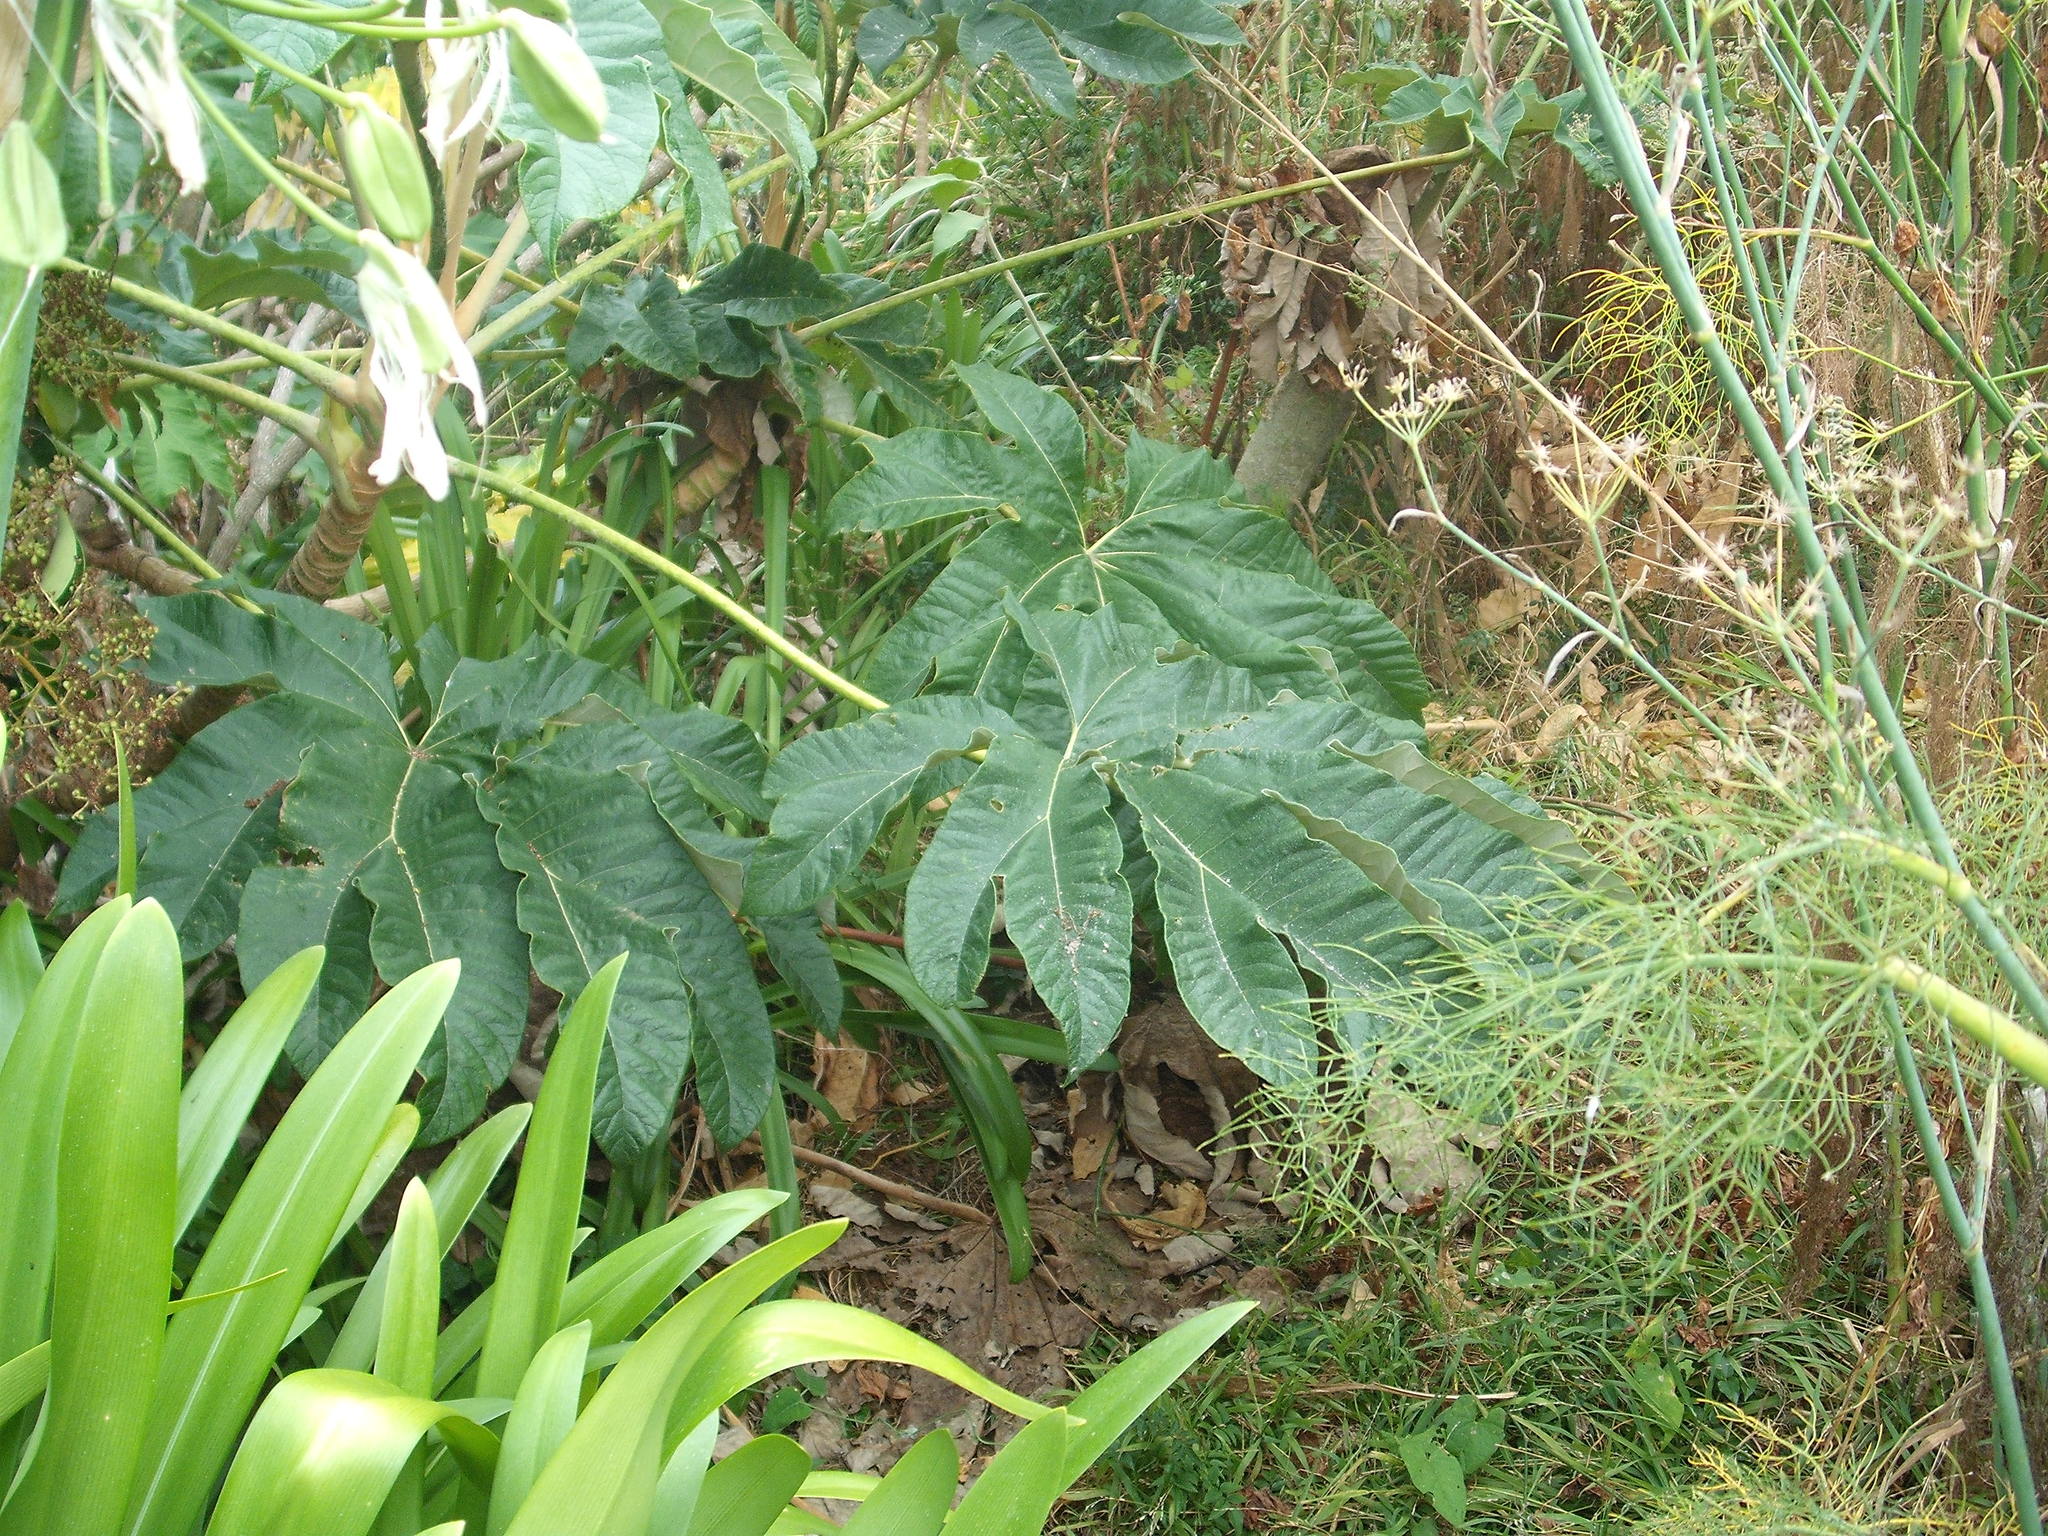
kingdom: Plantae
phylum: Tracheophyta
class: Magnoliopsida
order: Apiales
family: Araliaceae
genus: Tetrapanax
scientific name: Tetrapanax papyrifer
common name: Rice-paper plant
